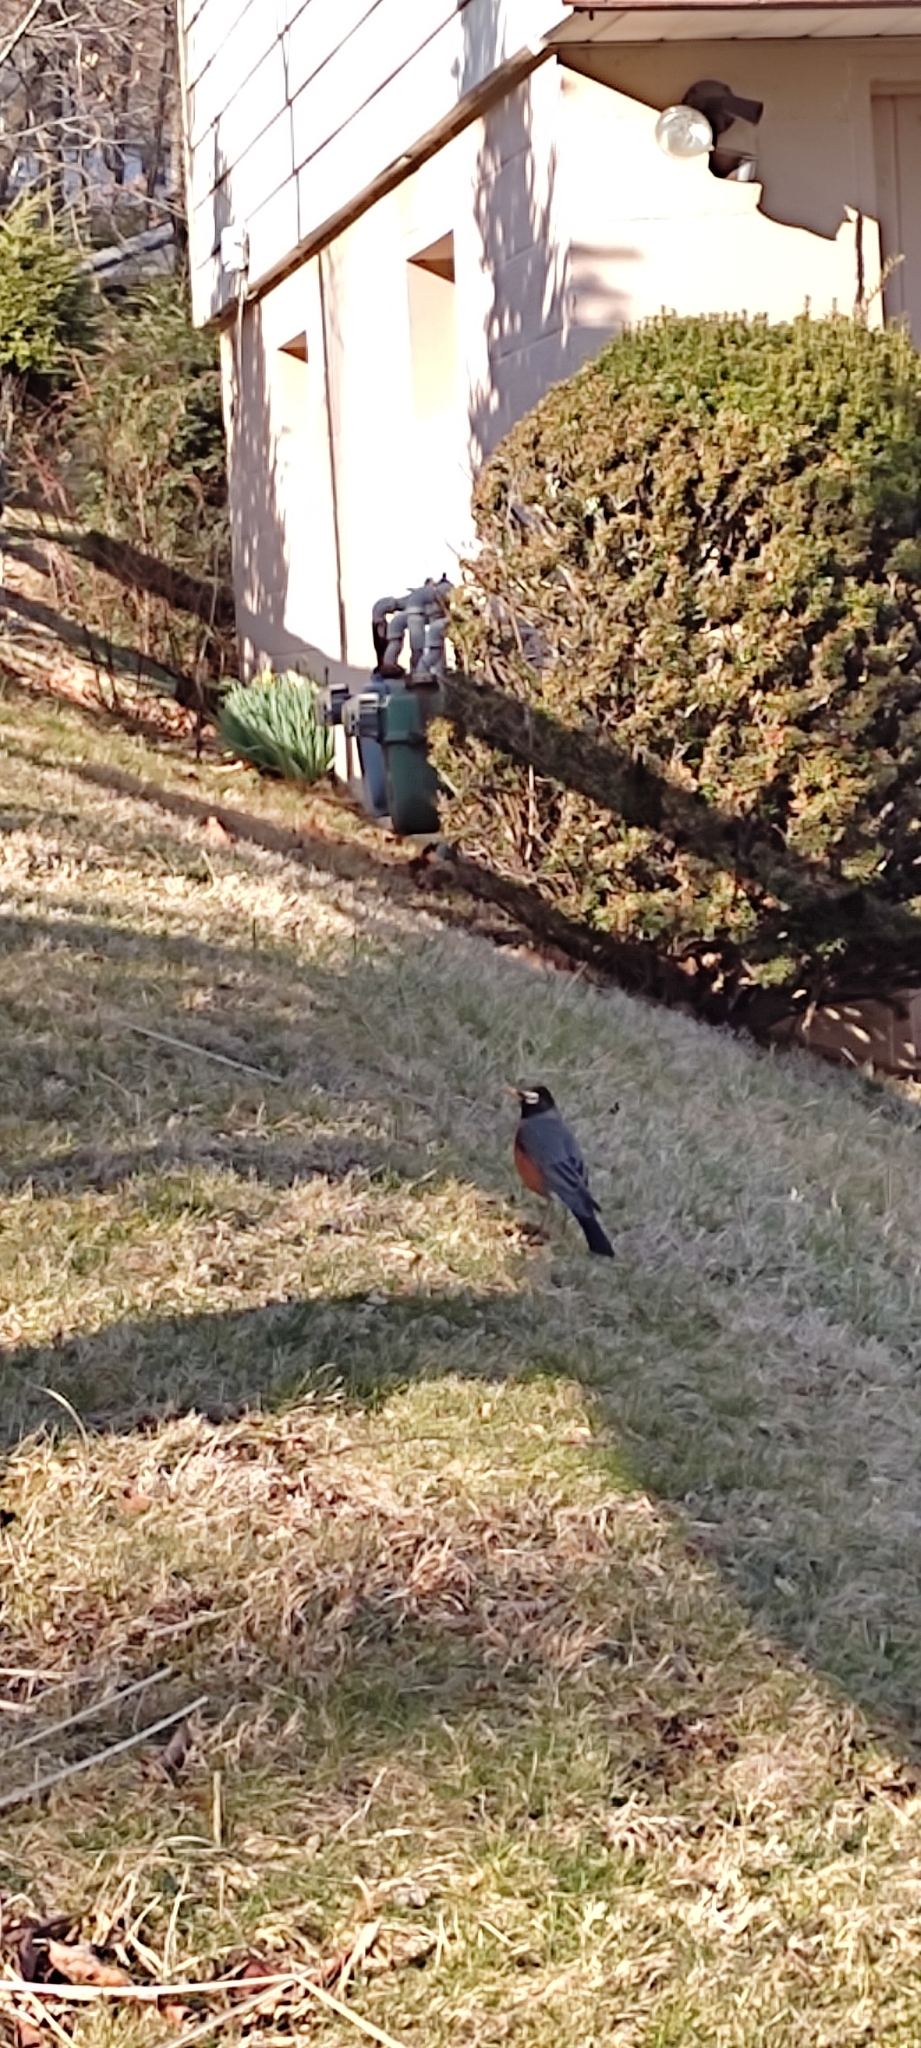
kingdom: Animalia
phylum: Chordata
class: Aves
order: Passeriformes
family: Turdidae
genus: Turdus
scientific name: Turdus migratorius
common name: American robin
